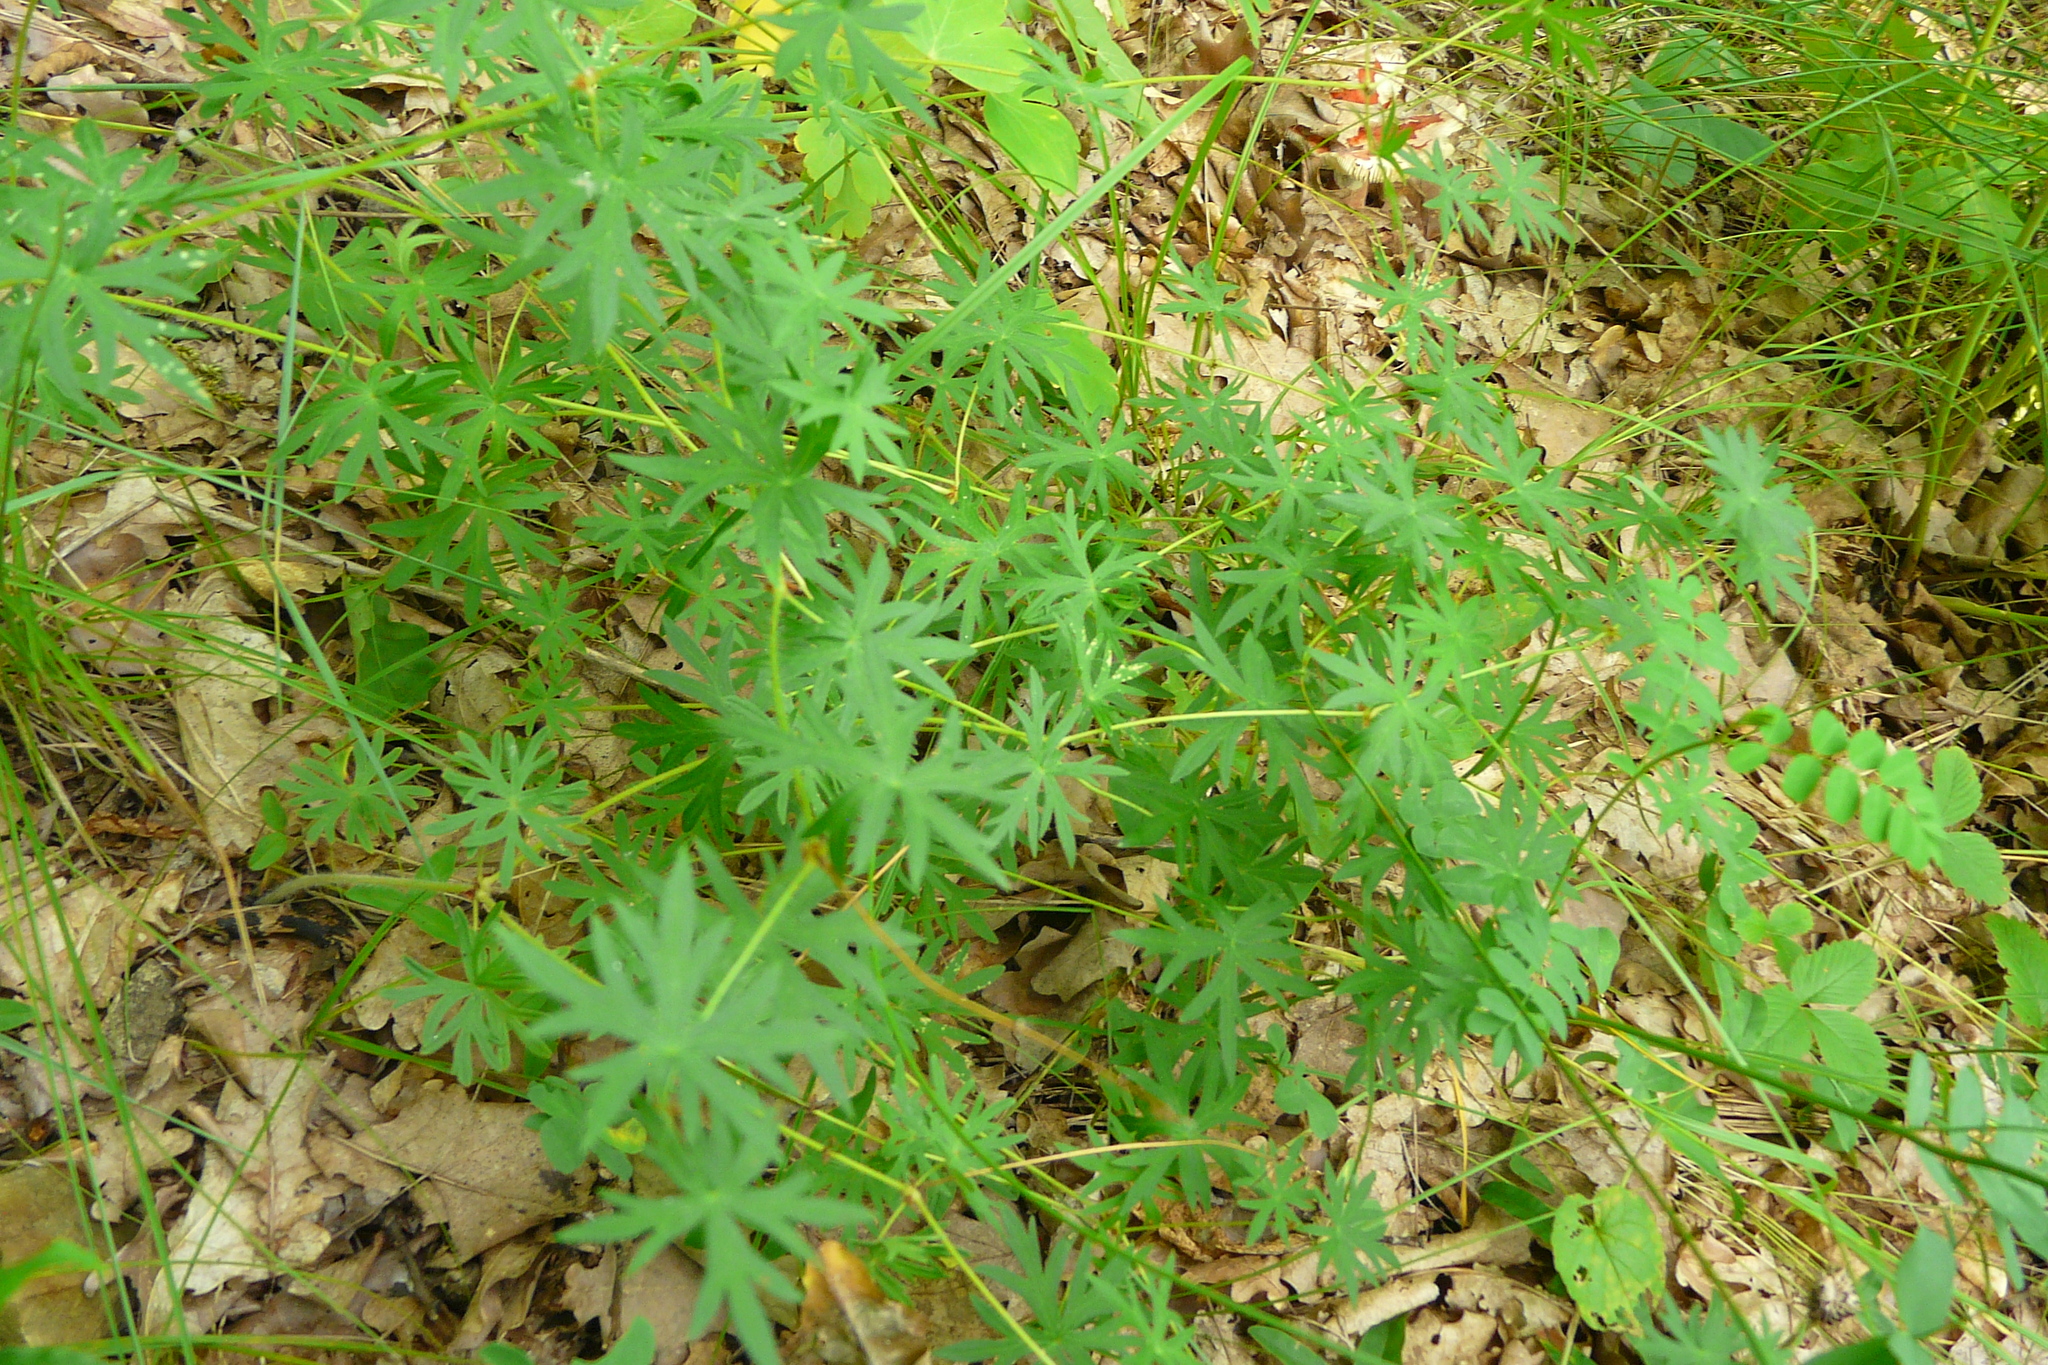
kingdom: Plantae
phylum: Tracheophyta
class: Magnoliopsida
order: Geraniales
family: Geraniaceae
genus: Geranium
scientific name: Geranium sanguineum
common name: Bloody crane's-bill
